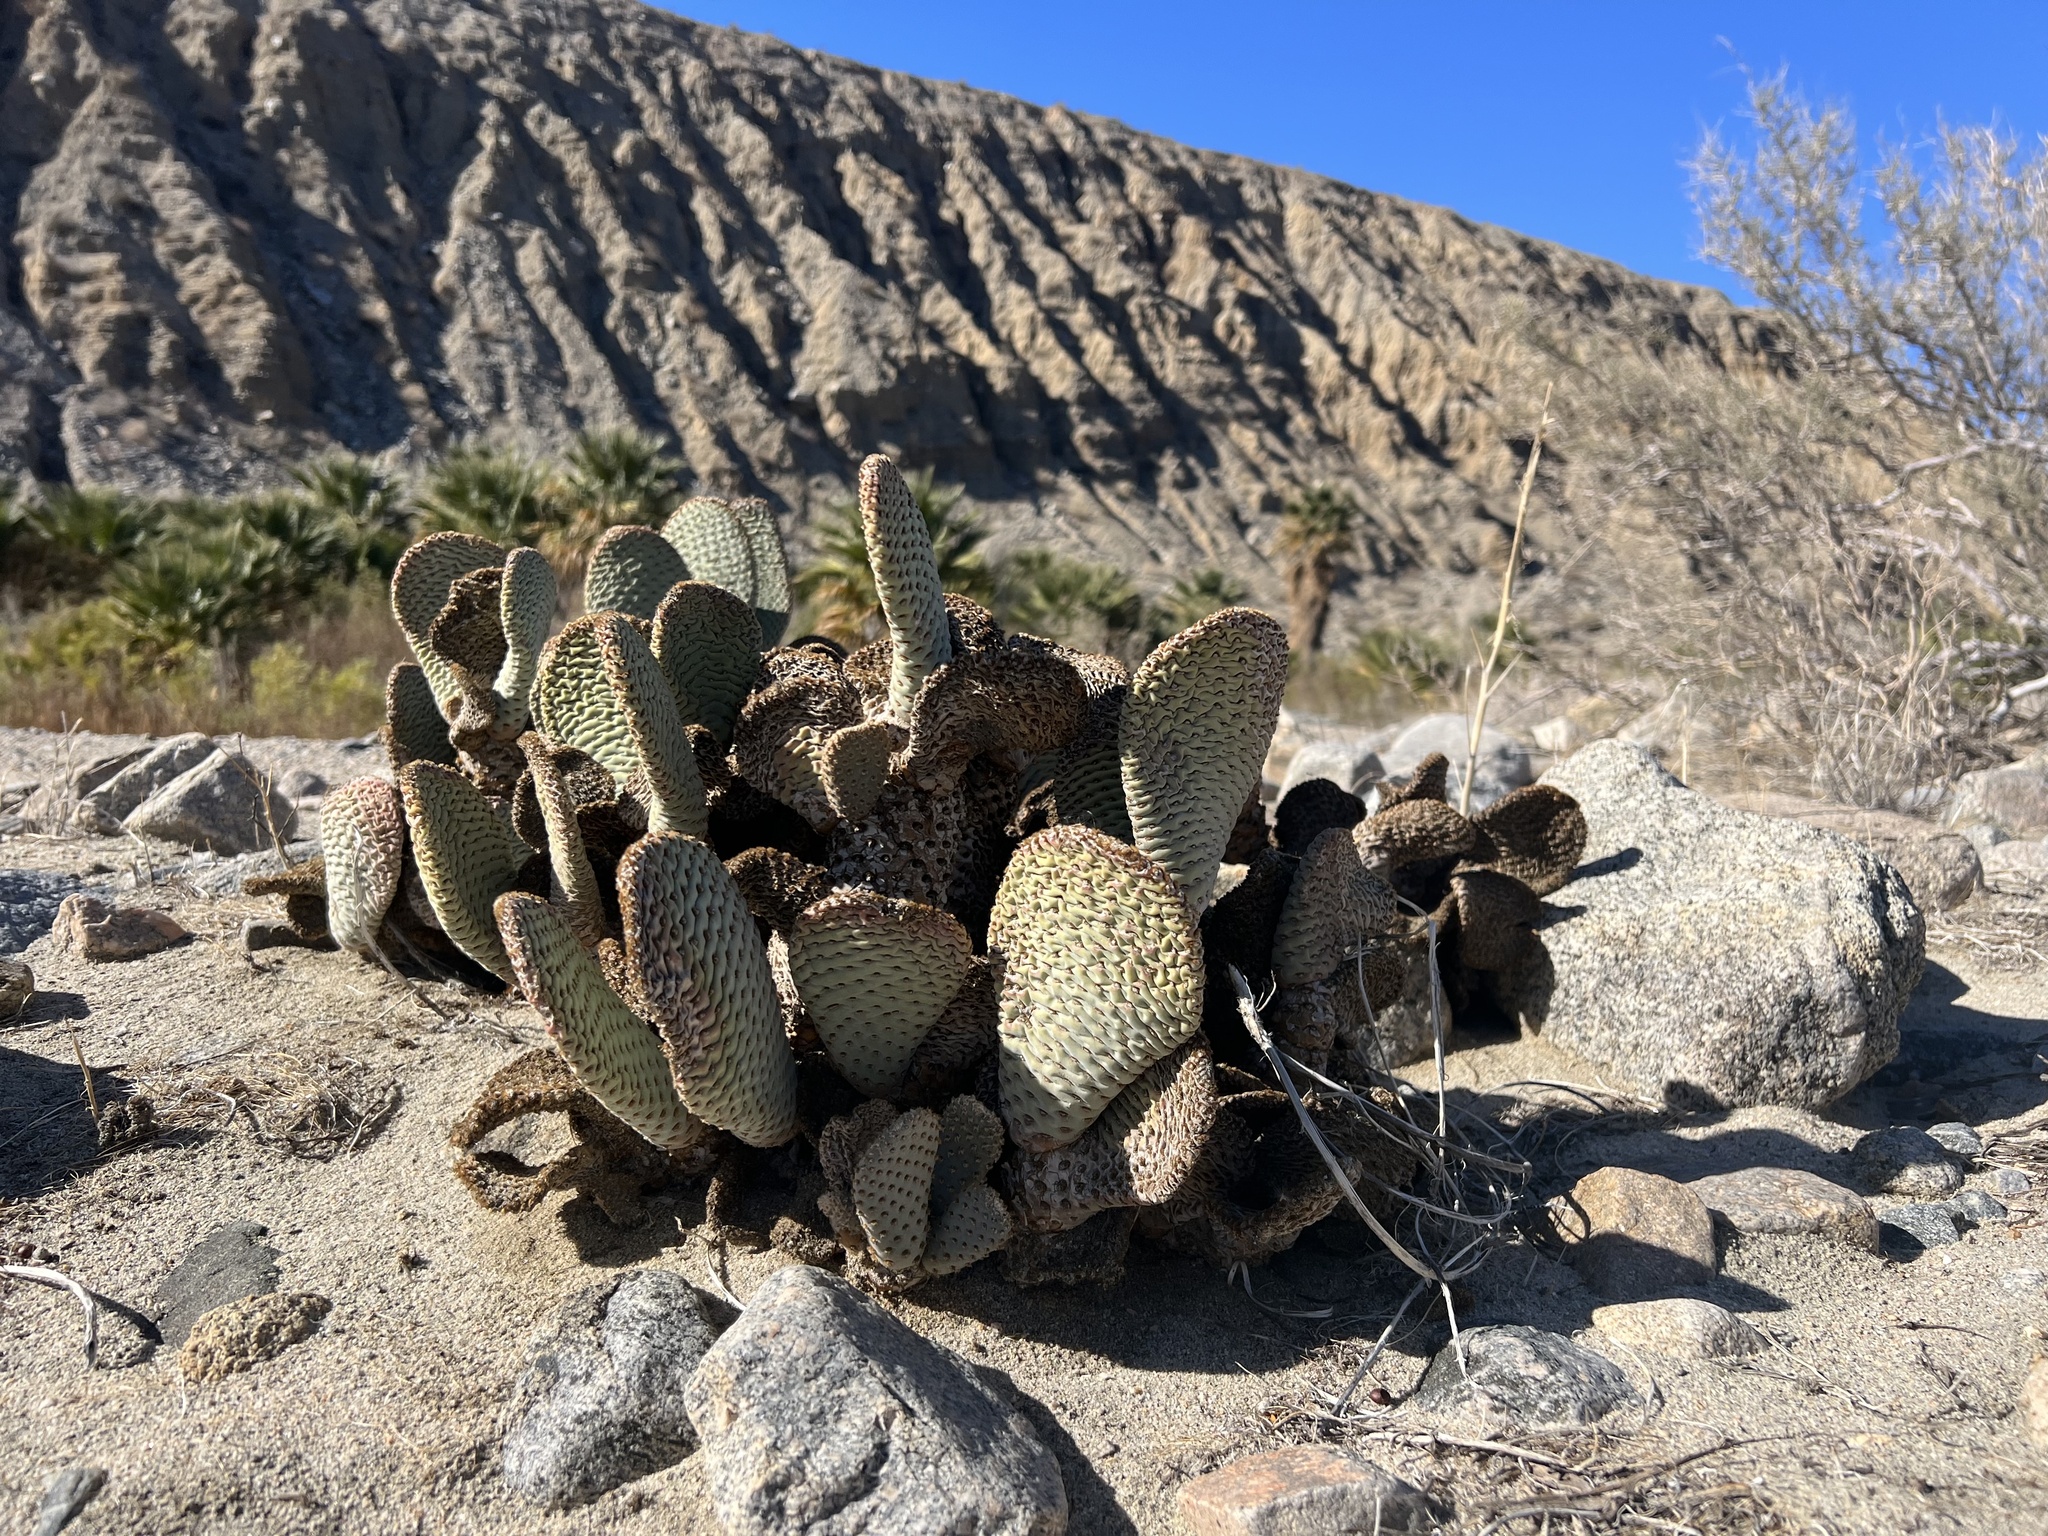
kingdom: Plantae
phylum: Tracheophyta
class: Magnoliopsida
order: Caryophyllales
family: Cactaceae
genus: Opuntia
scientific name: Opuntia basilaris
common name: Beavertail prickly-pear
